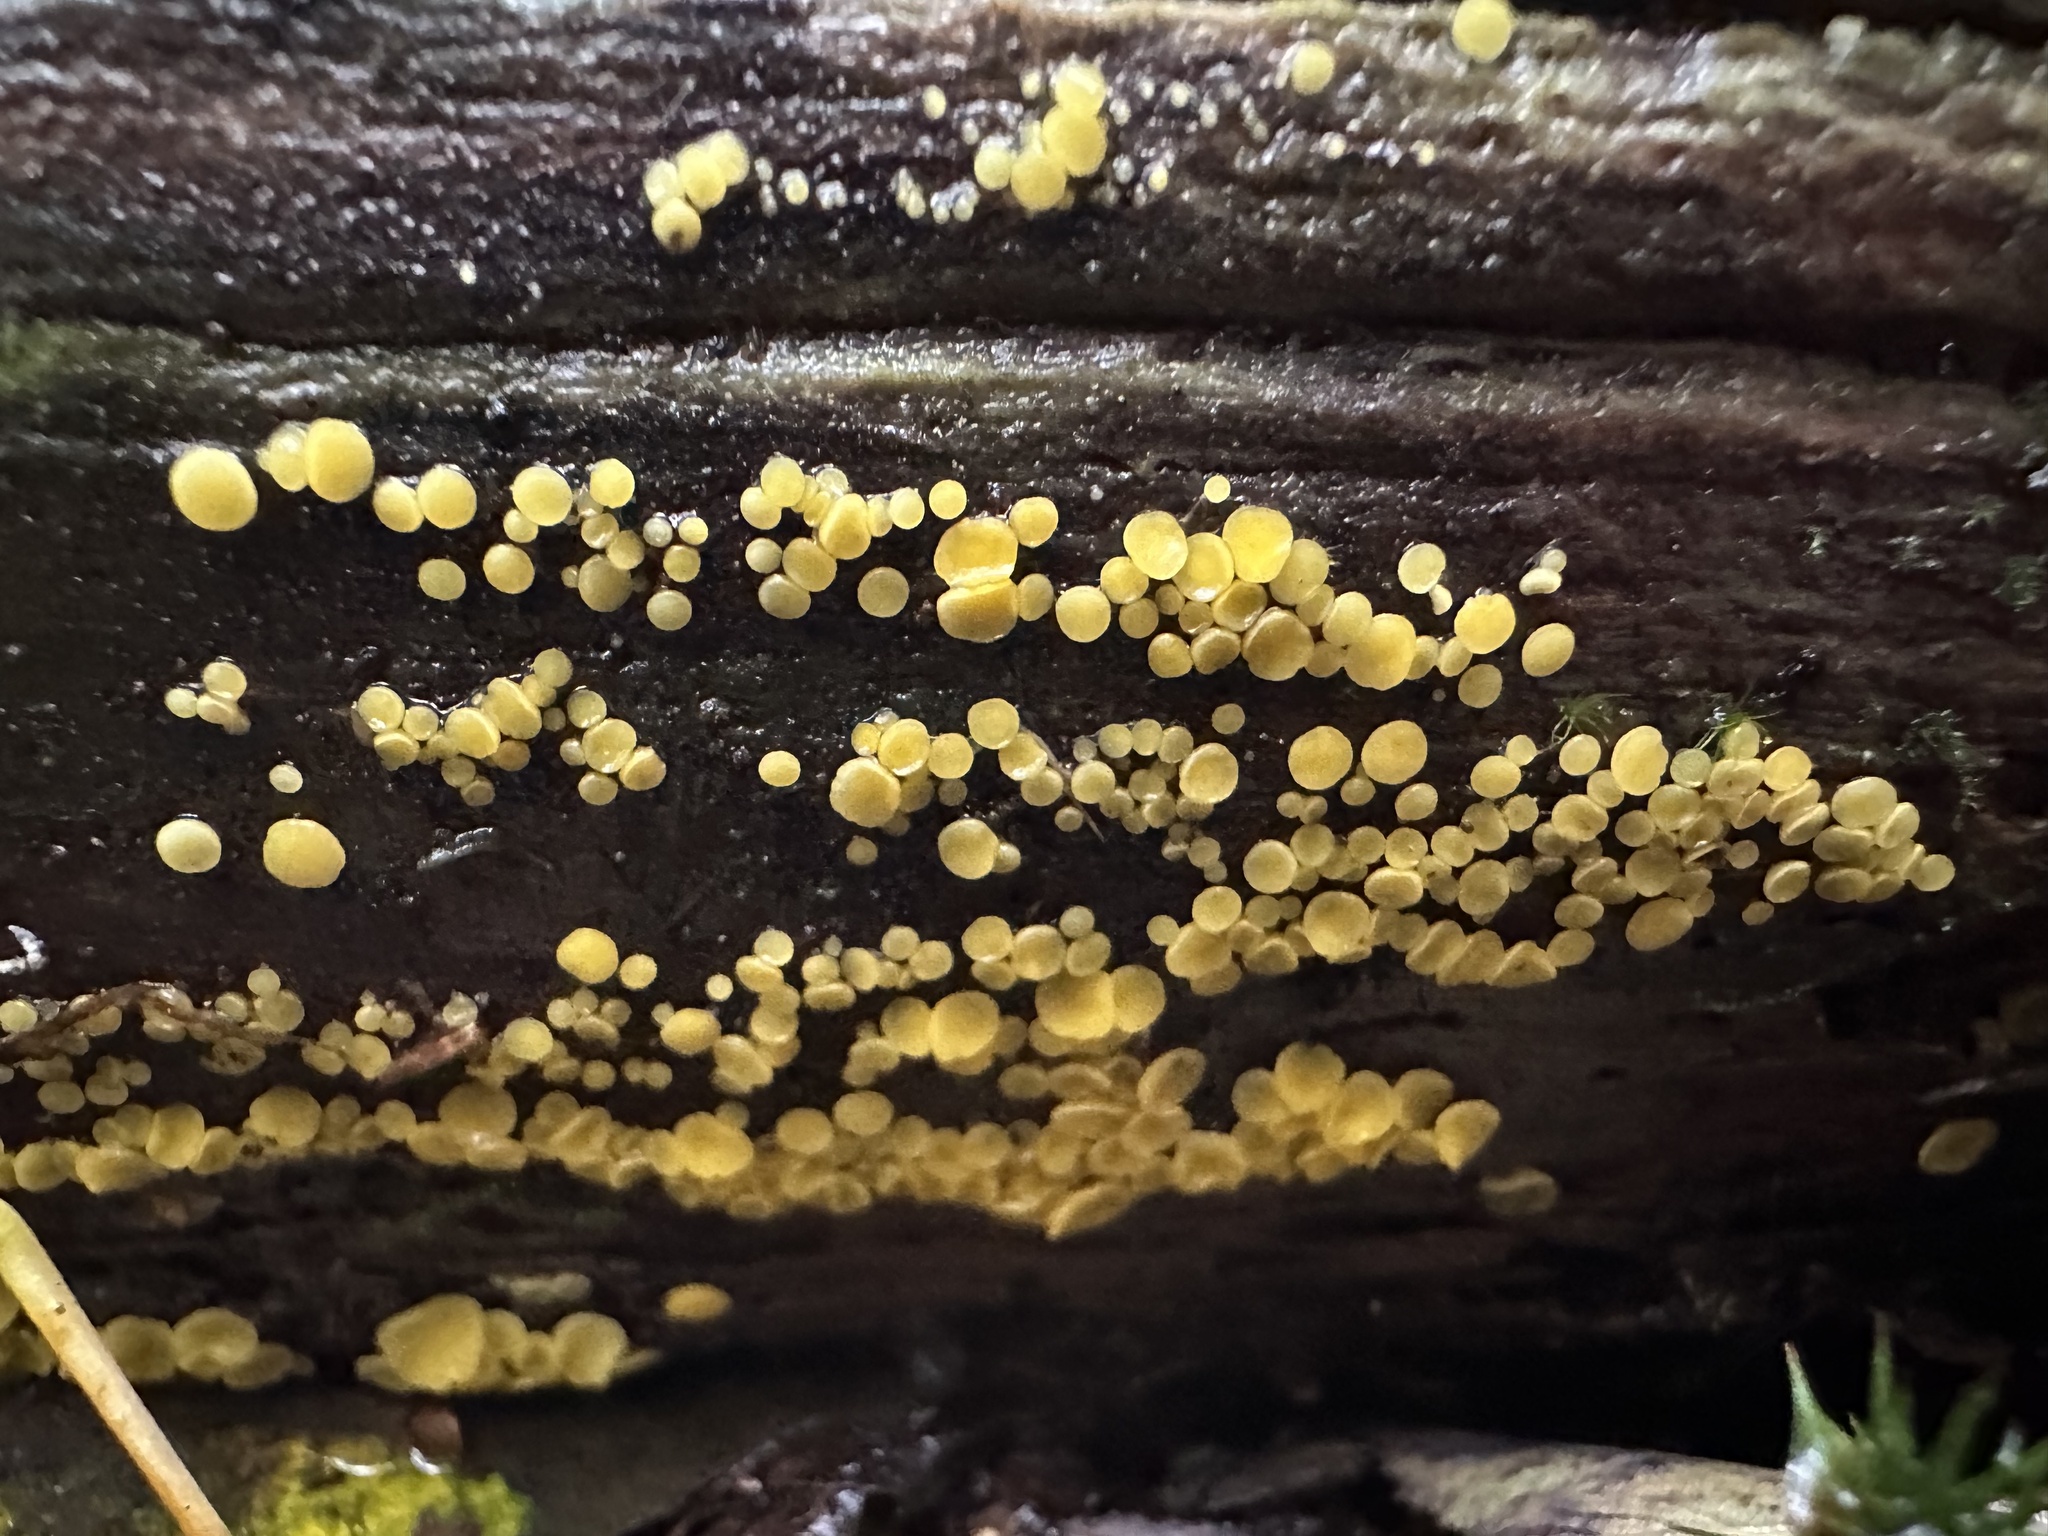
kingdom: Fungi
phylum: Ascomycota
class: Leotiomycetes
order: Helotiales
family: Pezizellaceae
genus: Calycina
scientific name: Calycina citrina
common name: Yellow fairy cups
